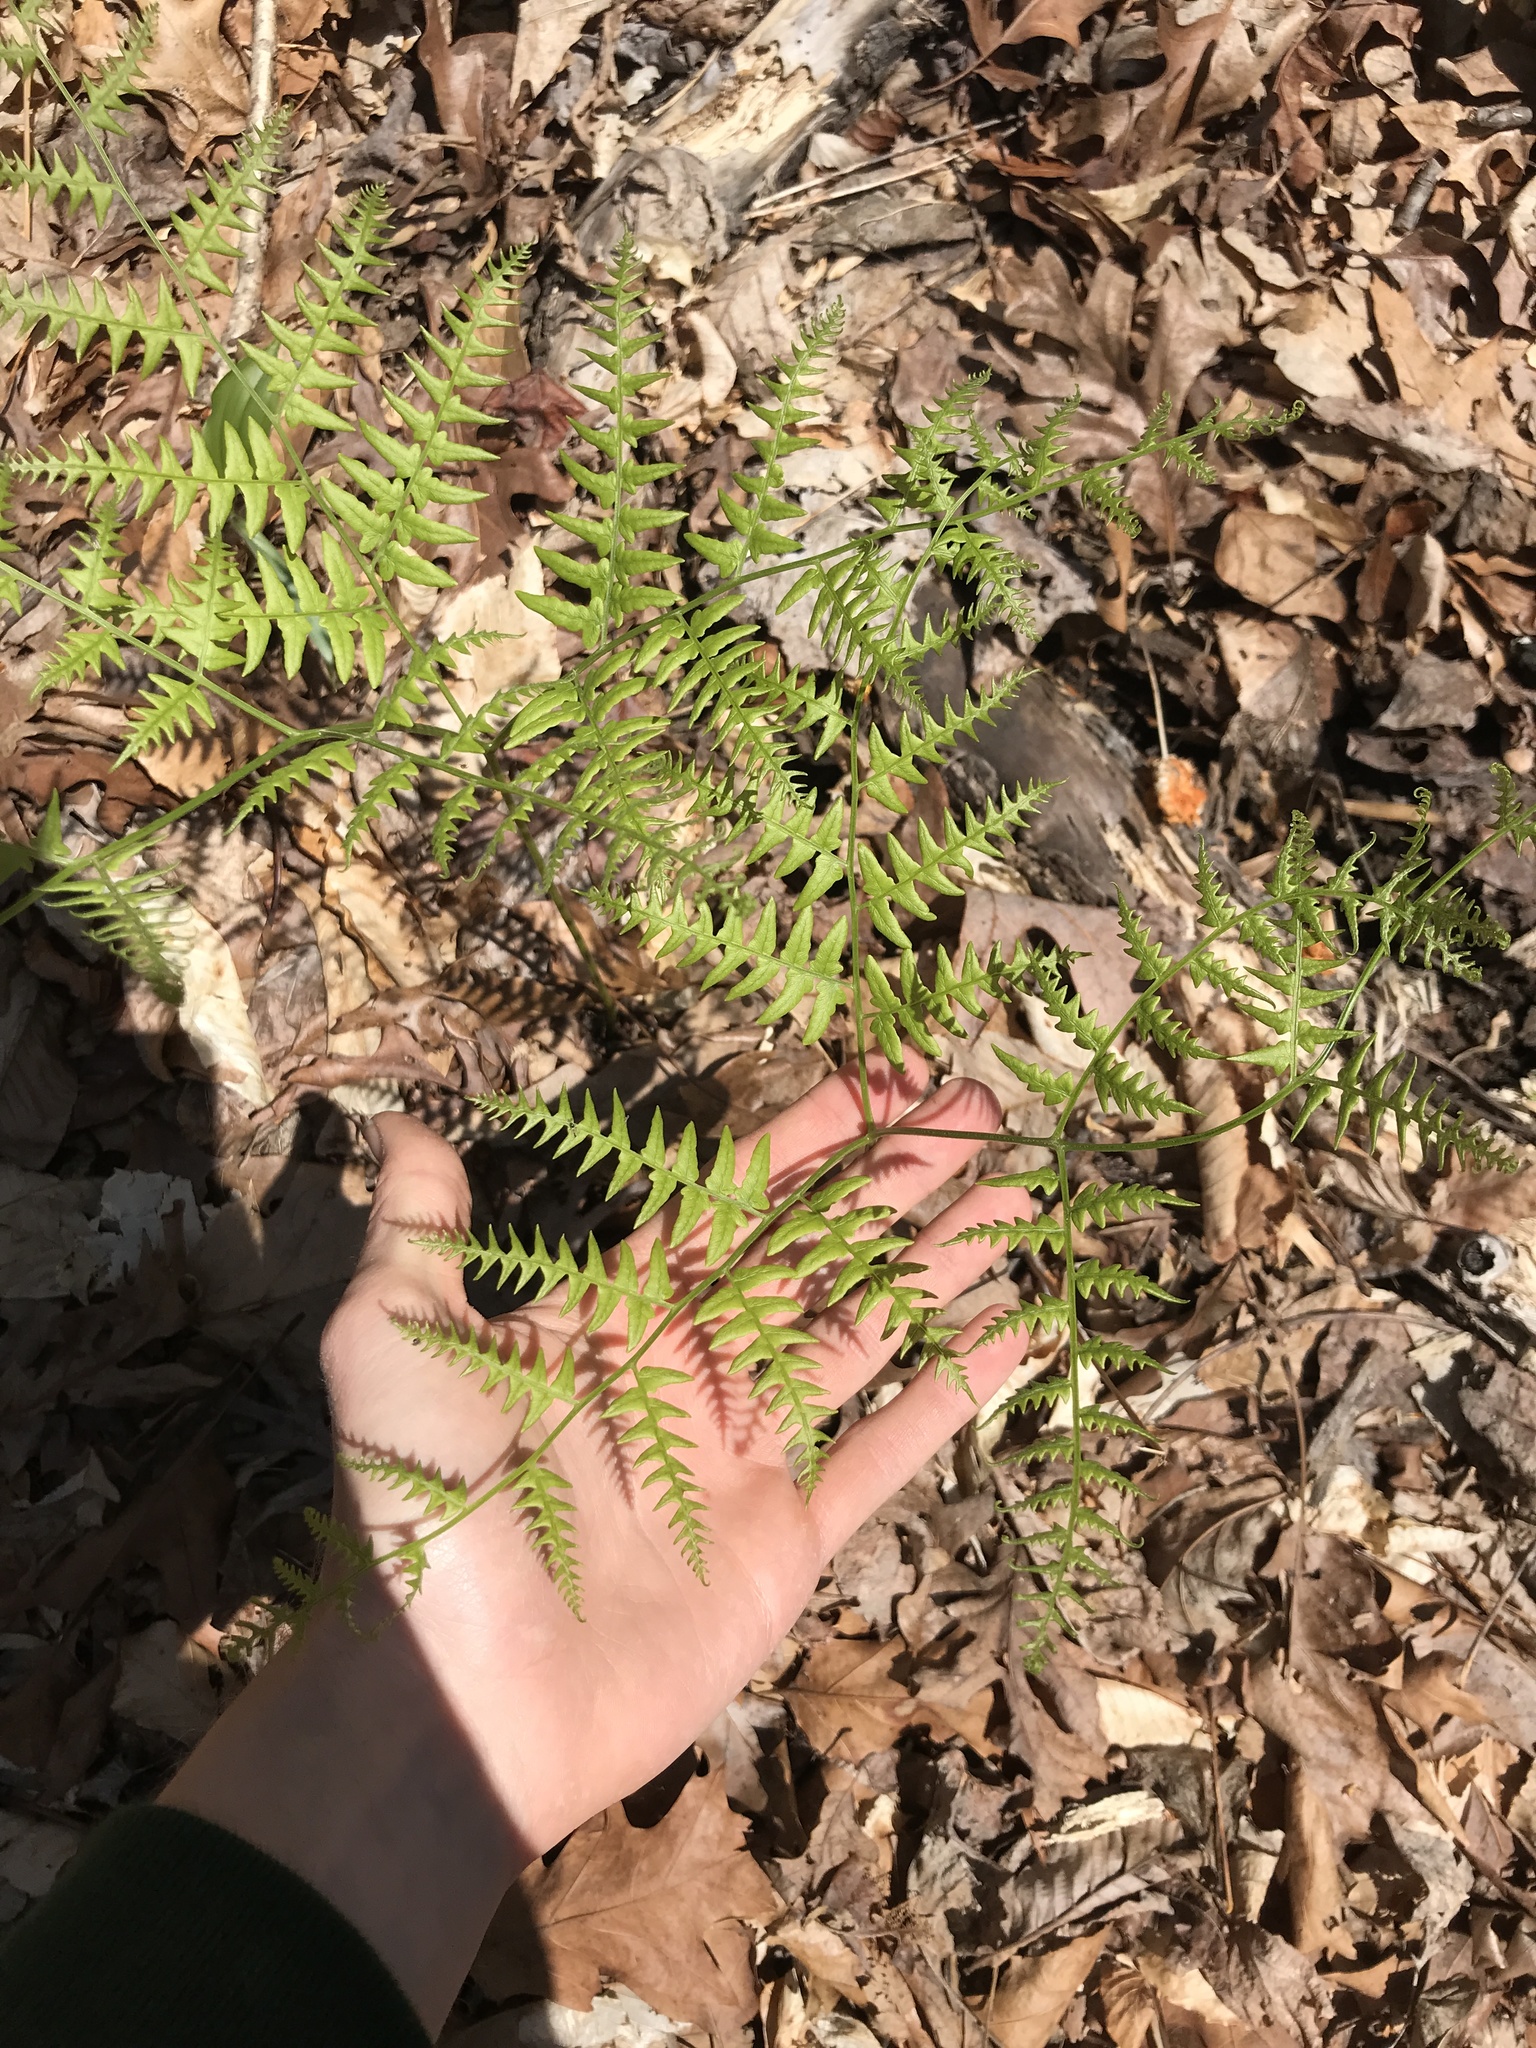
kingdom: Plantae
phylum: Tracheophyta
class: Polypodiopsida
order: Polypodiales
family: Dennstaedtiaceae
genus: Pteridium
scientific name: Pteridium aquilinum
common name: Bracken
